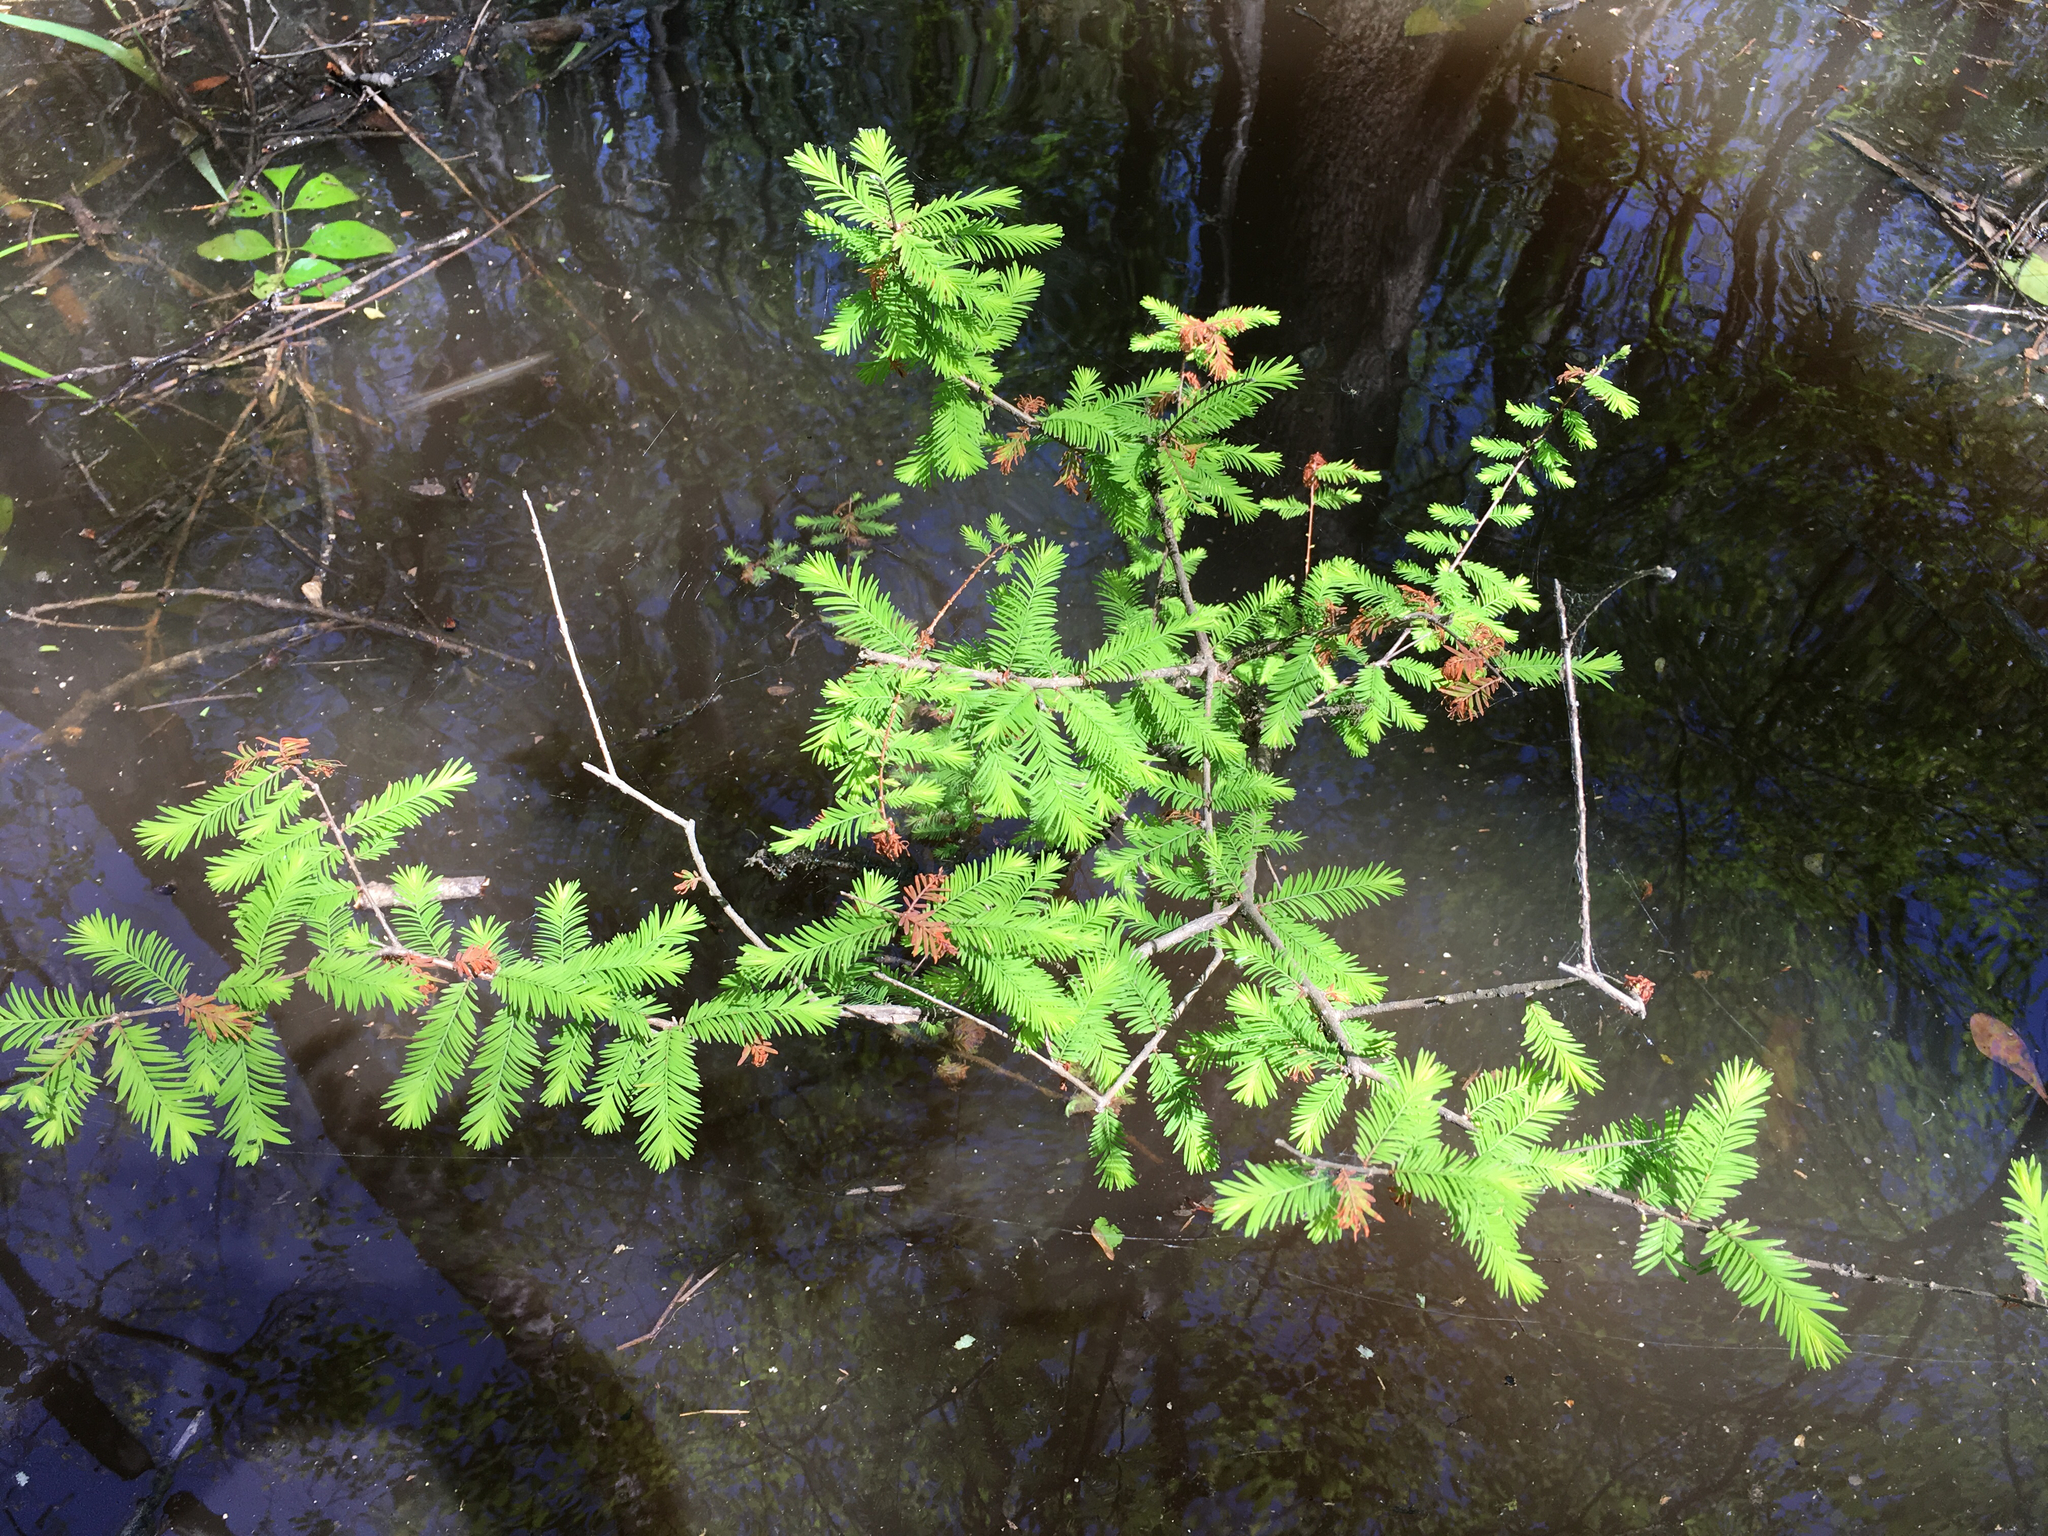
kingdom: Plantae
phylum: Tracheophyta
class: Pinopsida
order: Pinales
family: Cupressaceae
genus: Taxodium
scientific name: Taxodium distichum
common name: Bald cypress
